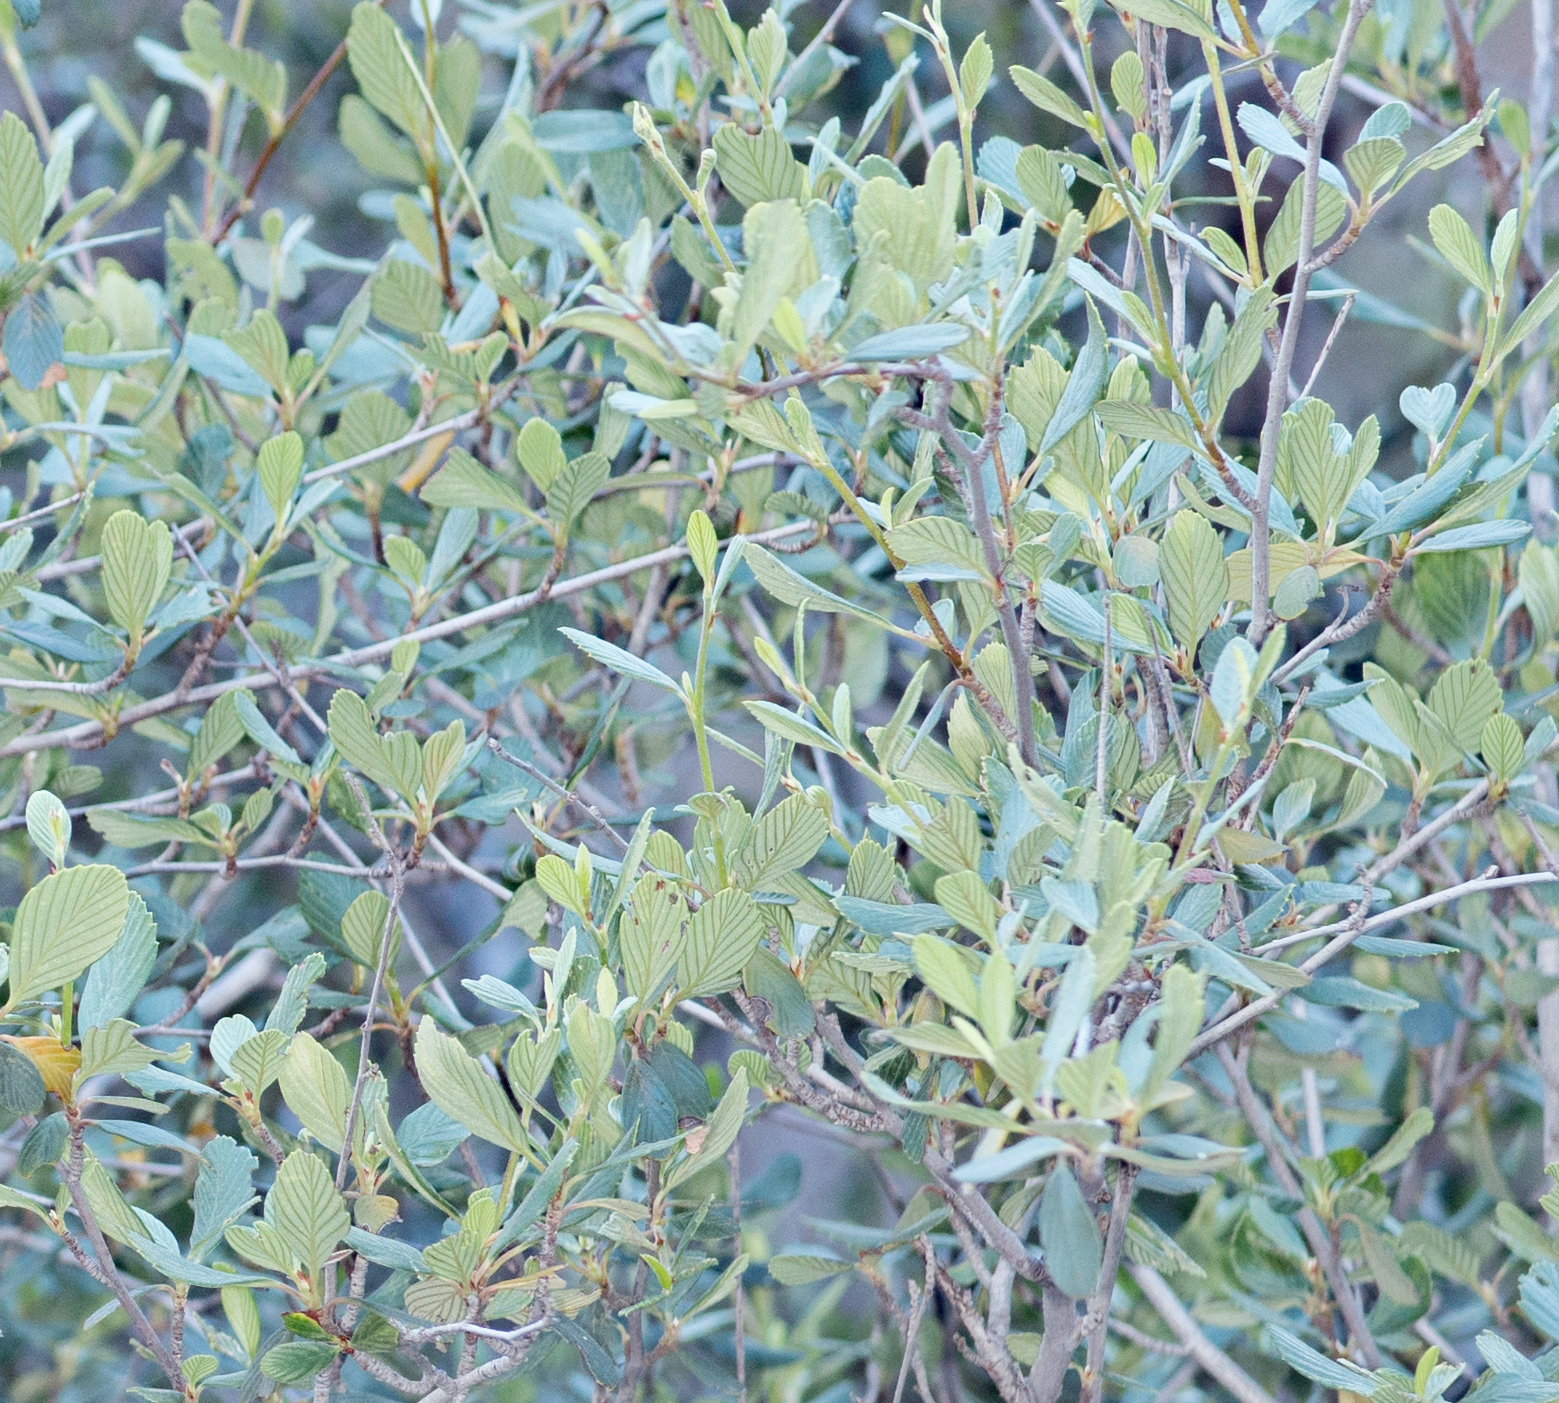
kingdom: Plantae
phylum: Tracheophyta
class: Magnoliopsida
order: Rosales
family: Rosaceae
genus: Cercocarpus
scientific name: Cercocarpus betuloides
